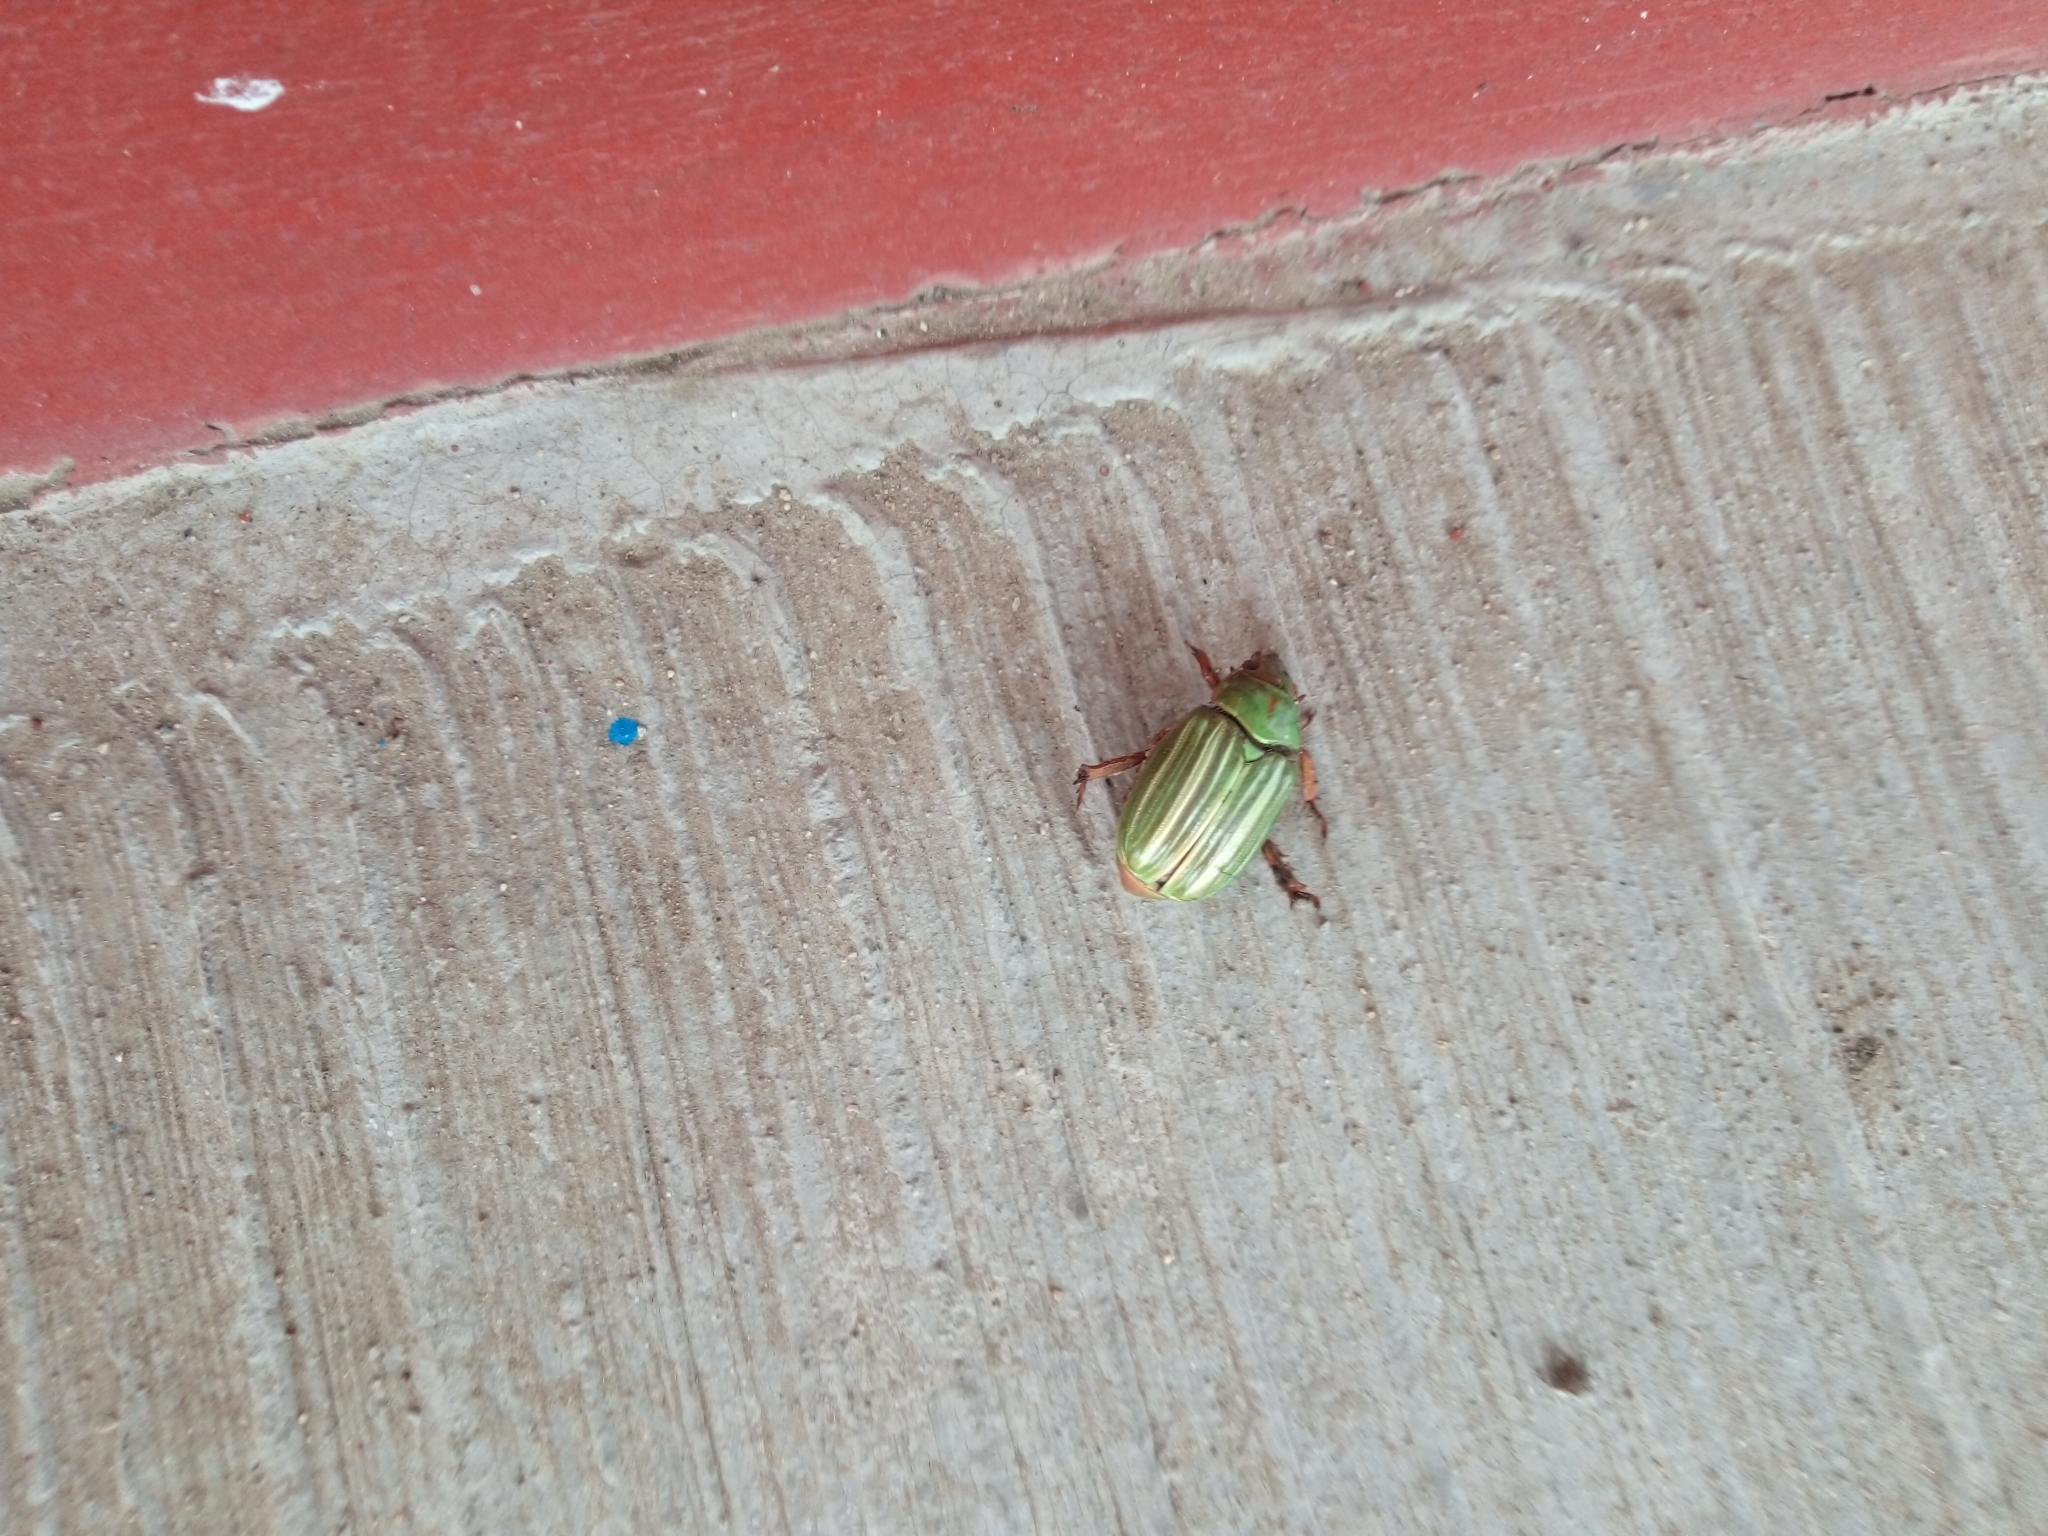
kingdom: Animalia
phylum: Arthropoda
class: Insecta
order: Coleoptera
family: Scarabaeidae
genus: Chrysina
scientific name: Chrysina adelaida
